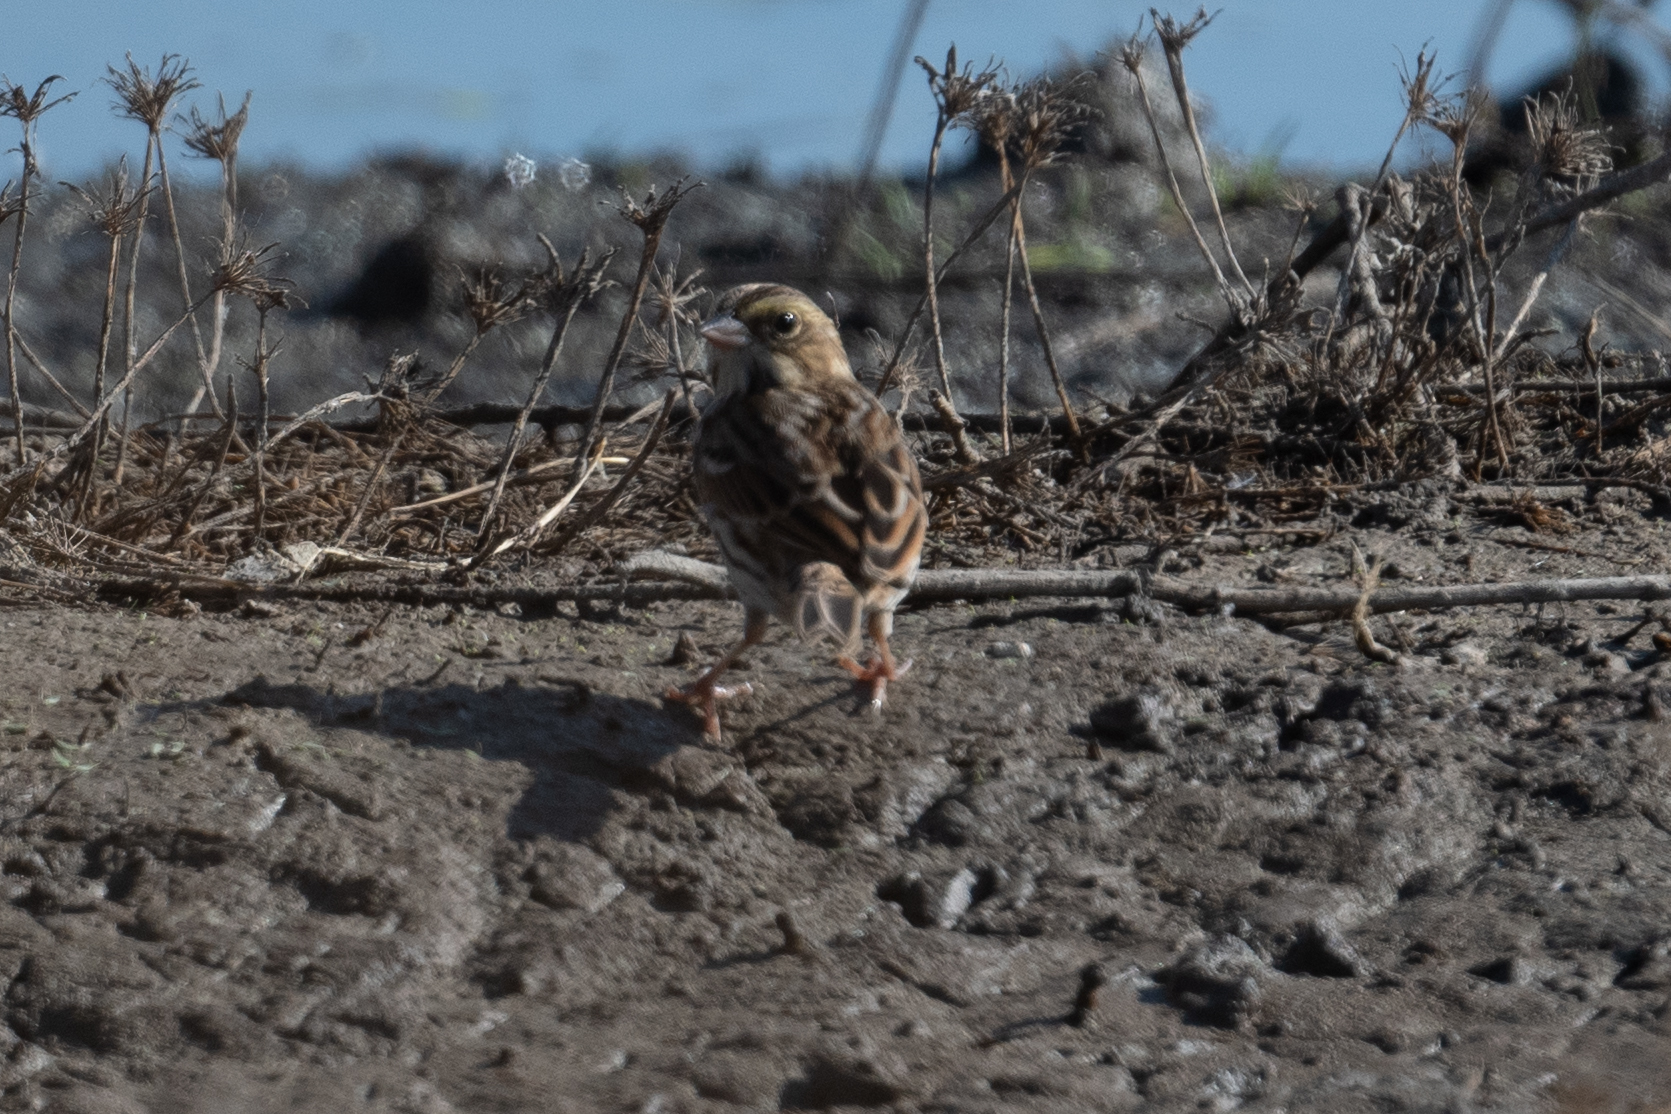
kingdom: Animalia
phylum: Chordata
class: Aves
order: Passeriformes
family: Passerellidae
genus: Passerculus
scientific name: Passerculus sandwichensis
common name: Savannah sparrow
